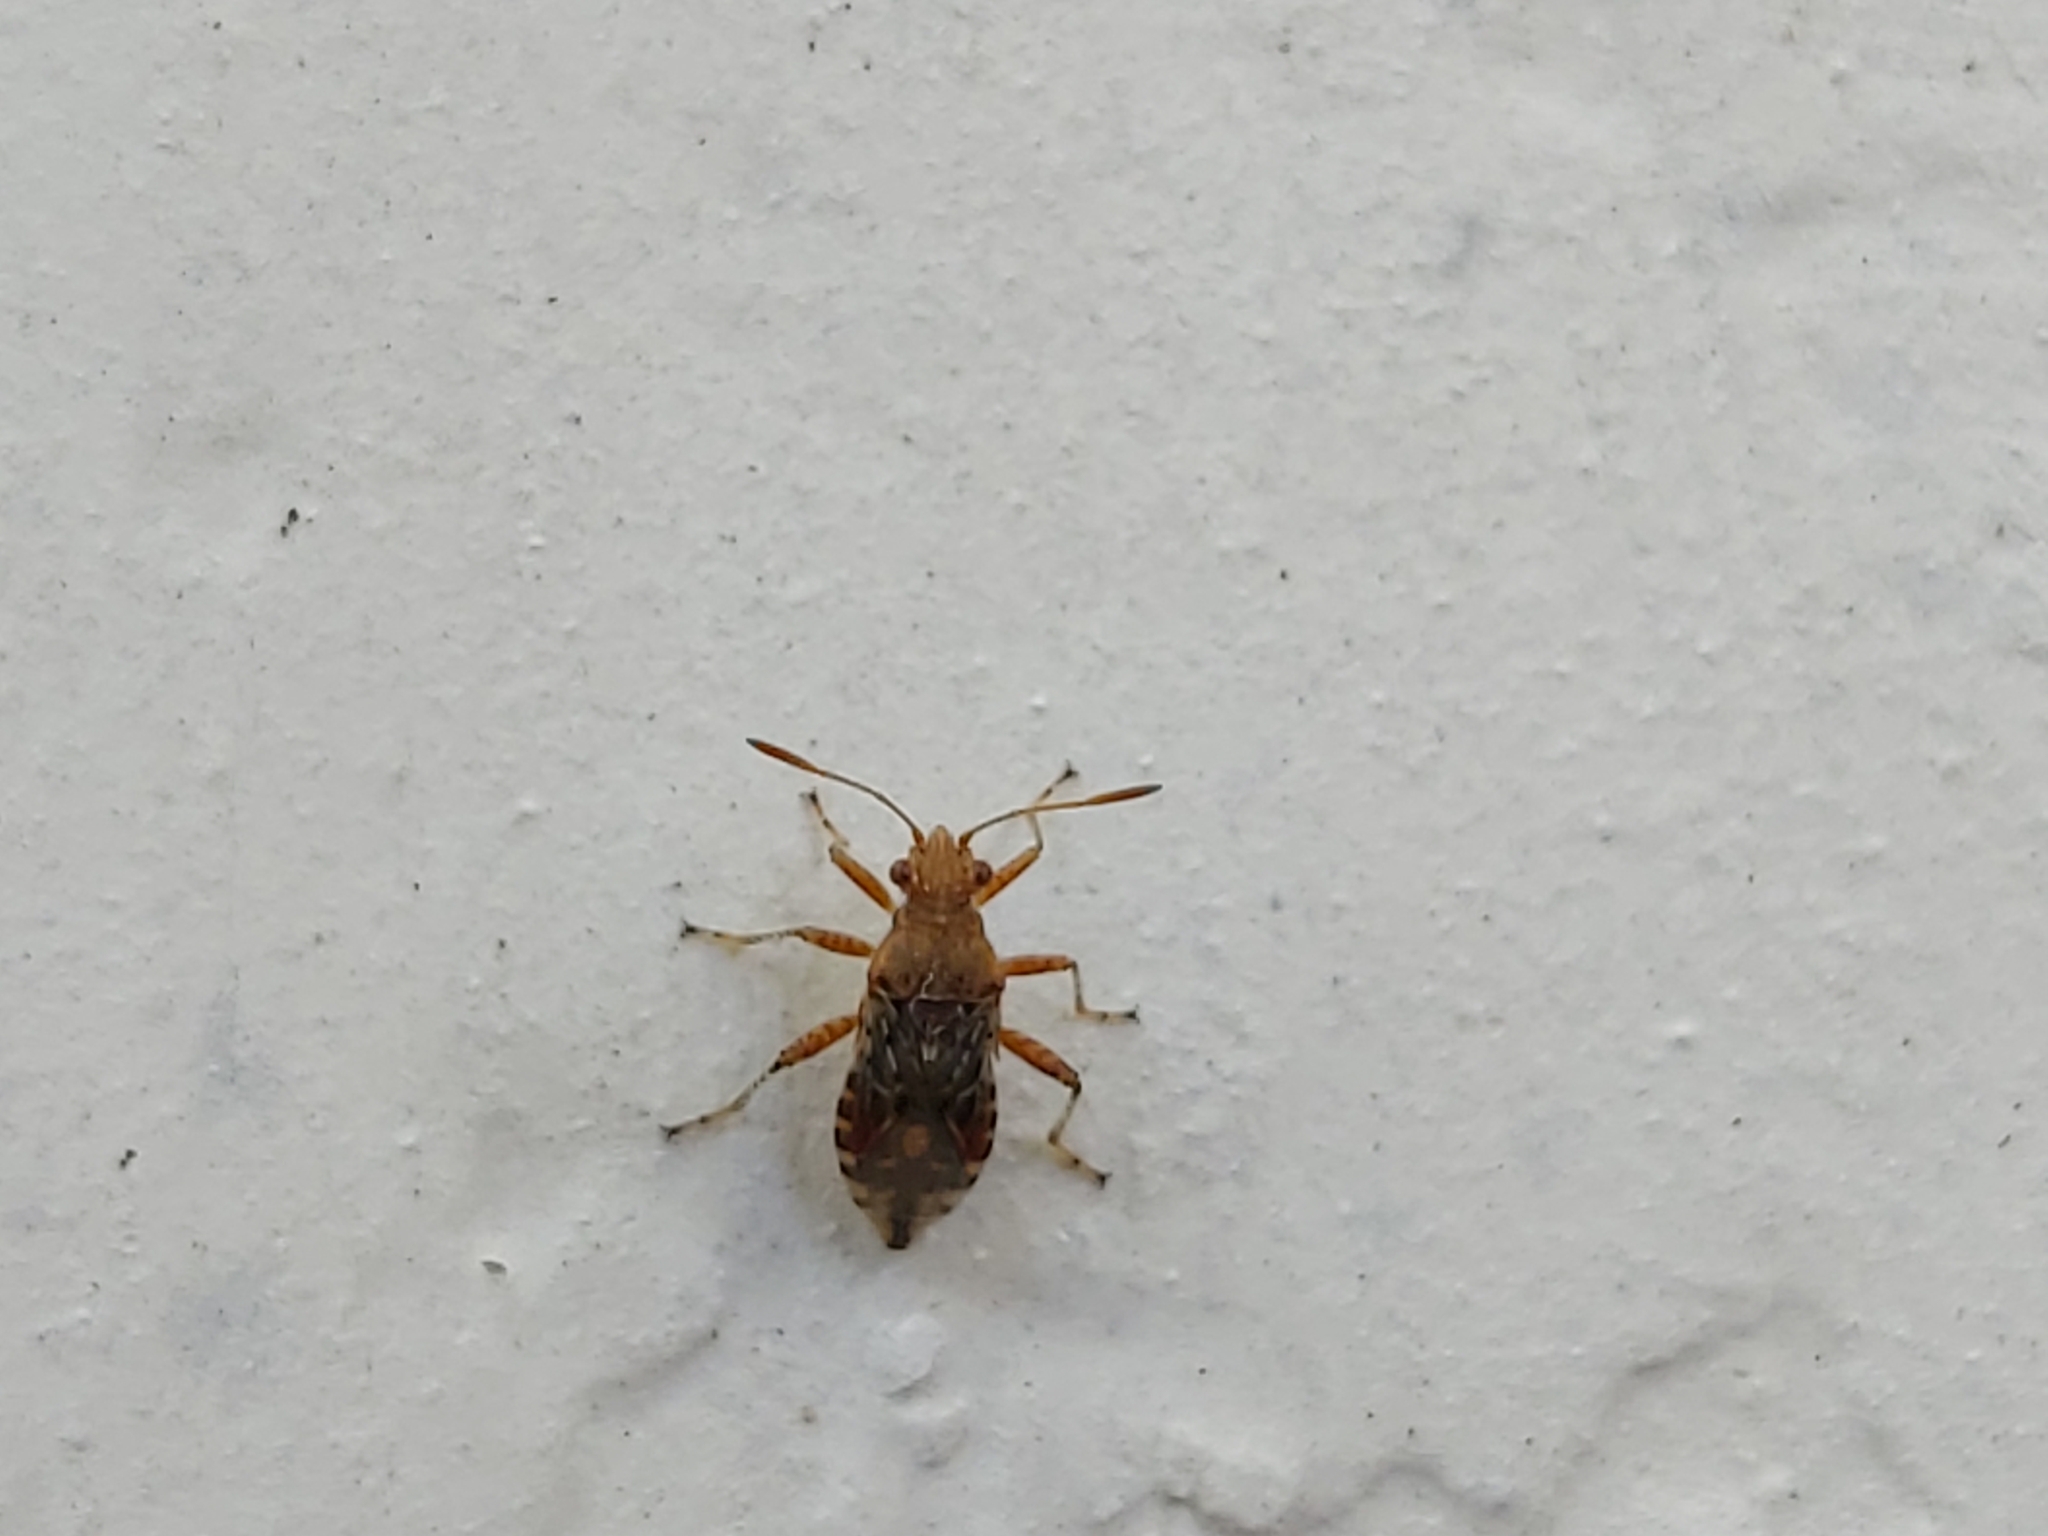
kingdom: Animalia
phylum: Arthropoda
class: Insecta
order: Hemiptera
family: Rhopalidae
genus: Rhopalus
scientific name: Rhopalus subrufus
